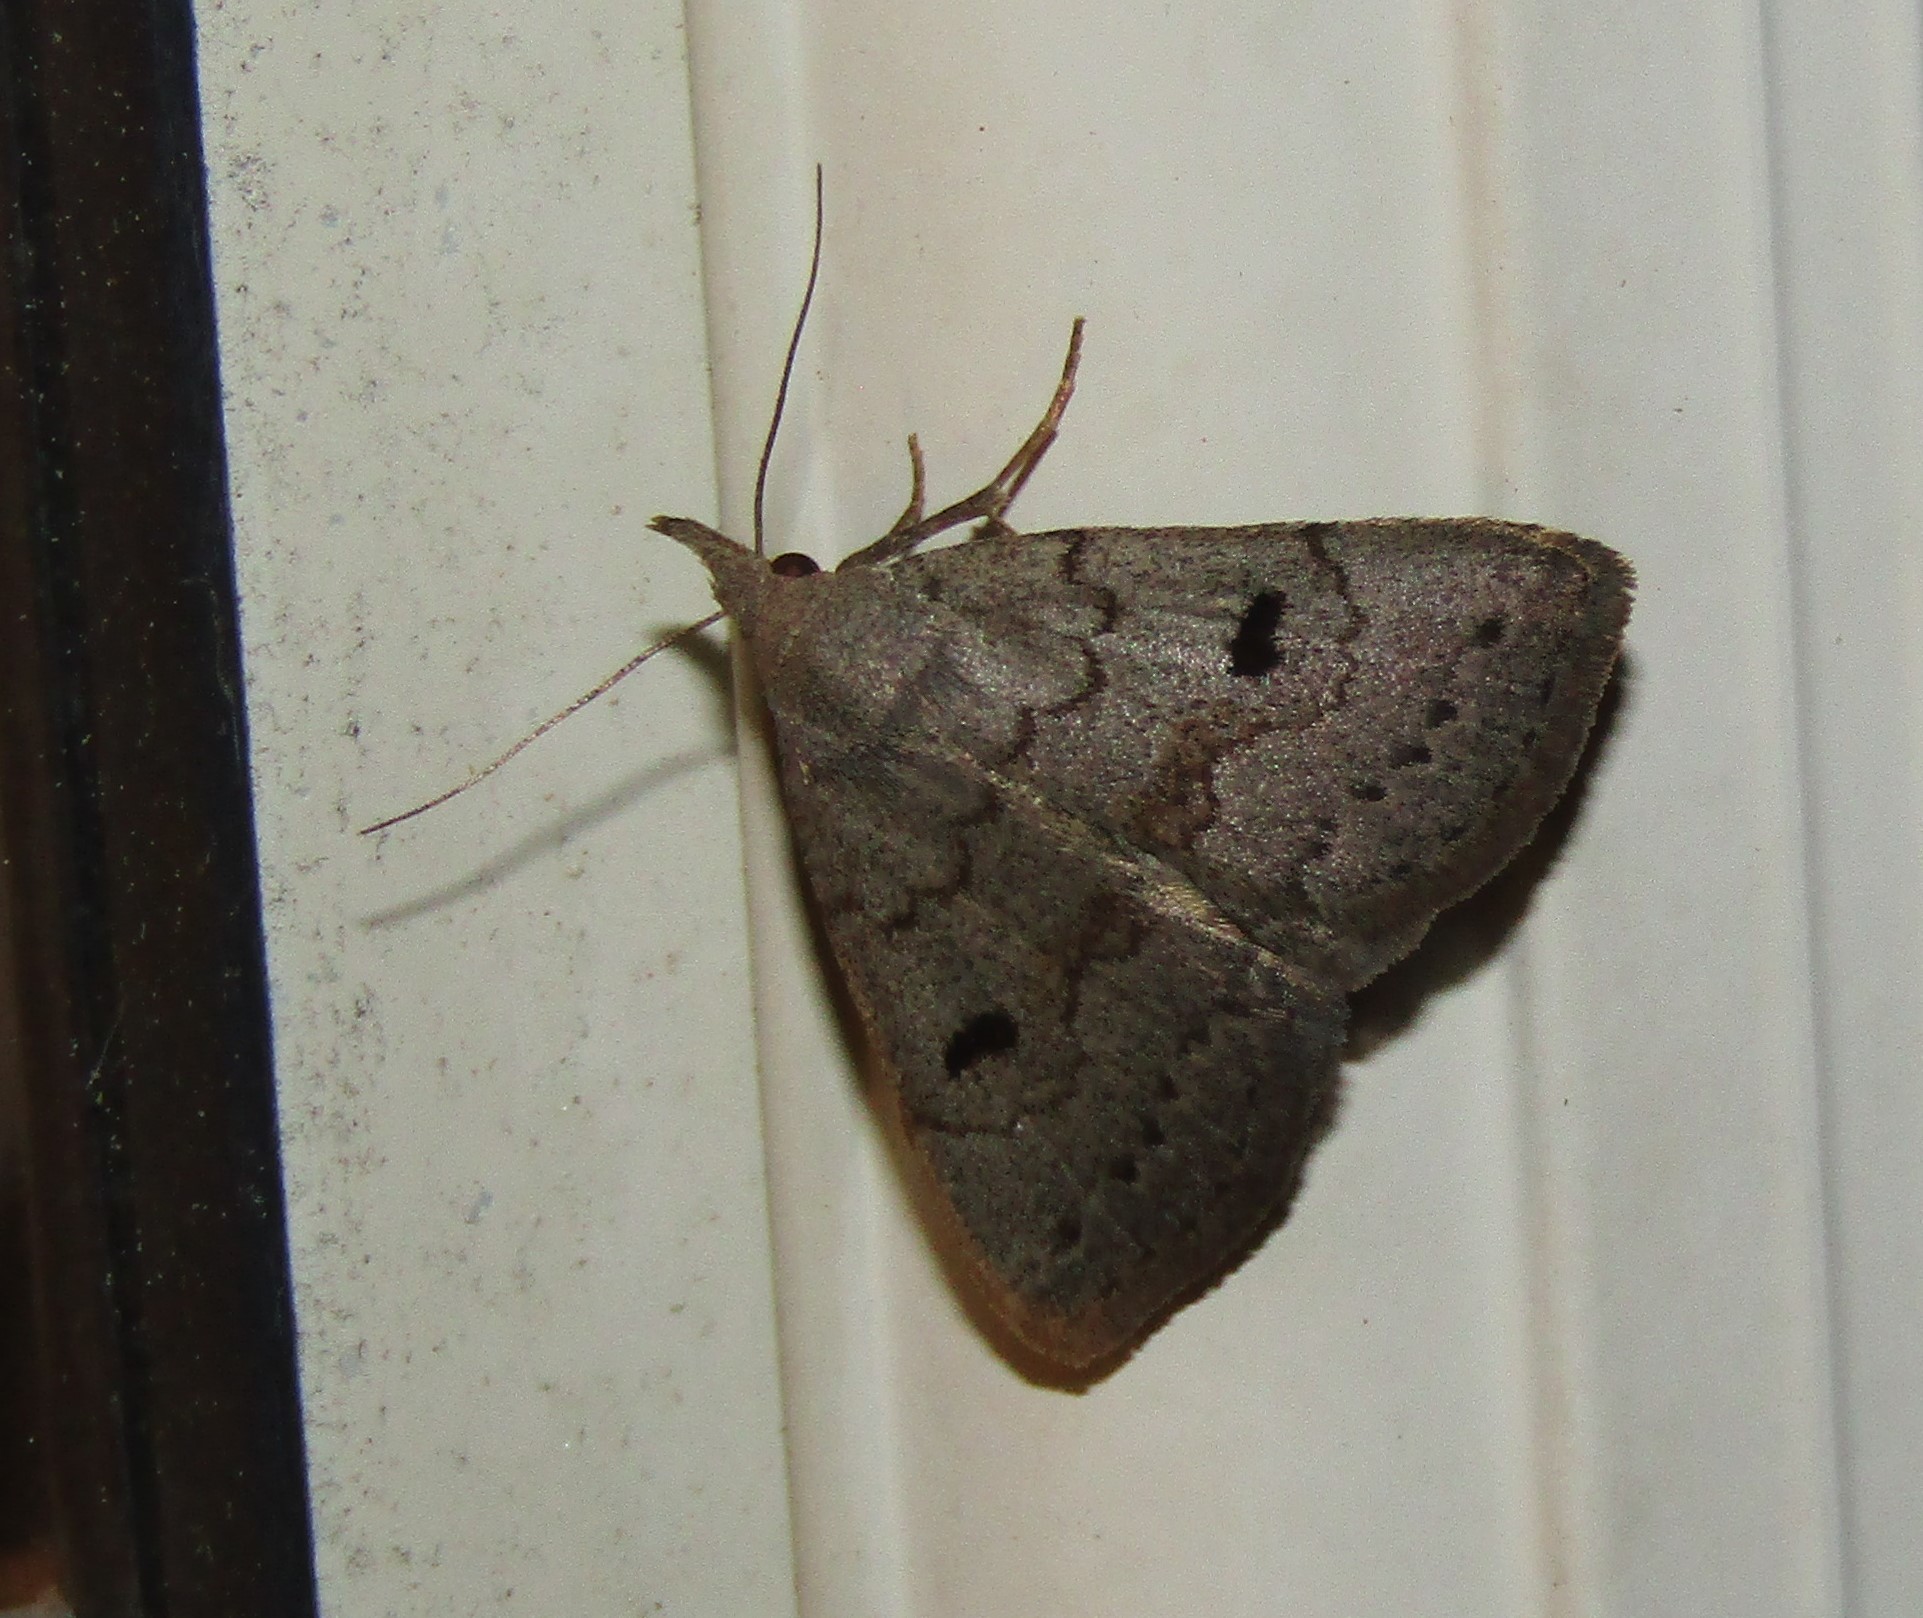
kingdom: Animalia
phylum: Arthropoda
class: Insecta
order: Lepidoptera
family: Erebidae
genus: Macrochilo
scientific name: Macrochilo morbidalis
